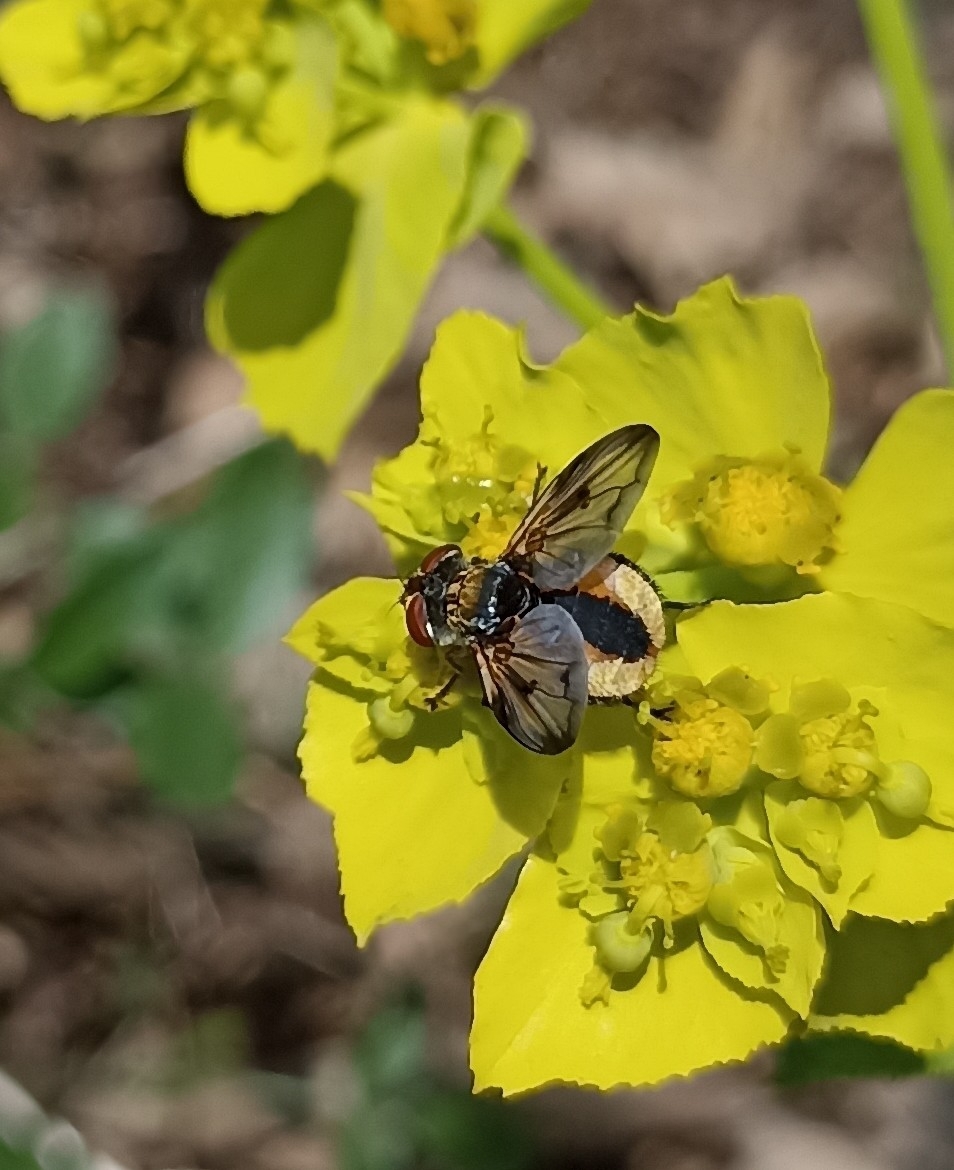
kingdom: Animalia
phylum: Arthropoda
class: Insecta
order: Diptera
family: Tachinidae
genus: Ectophasia
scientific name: Ectophasia crassipennis
